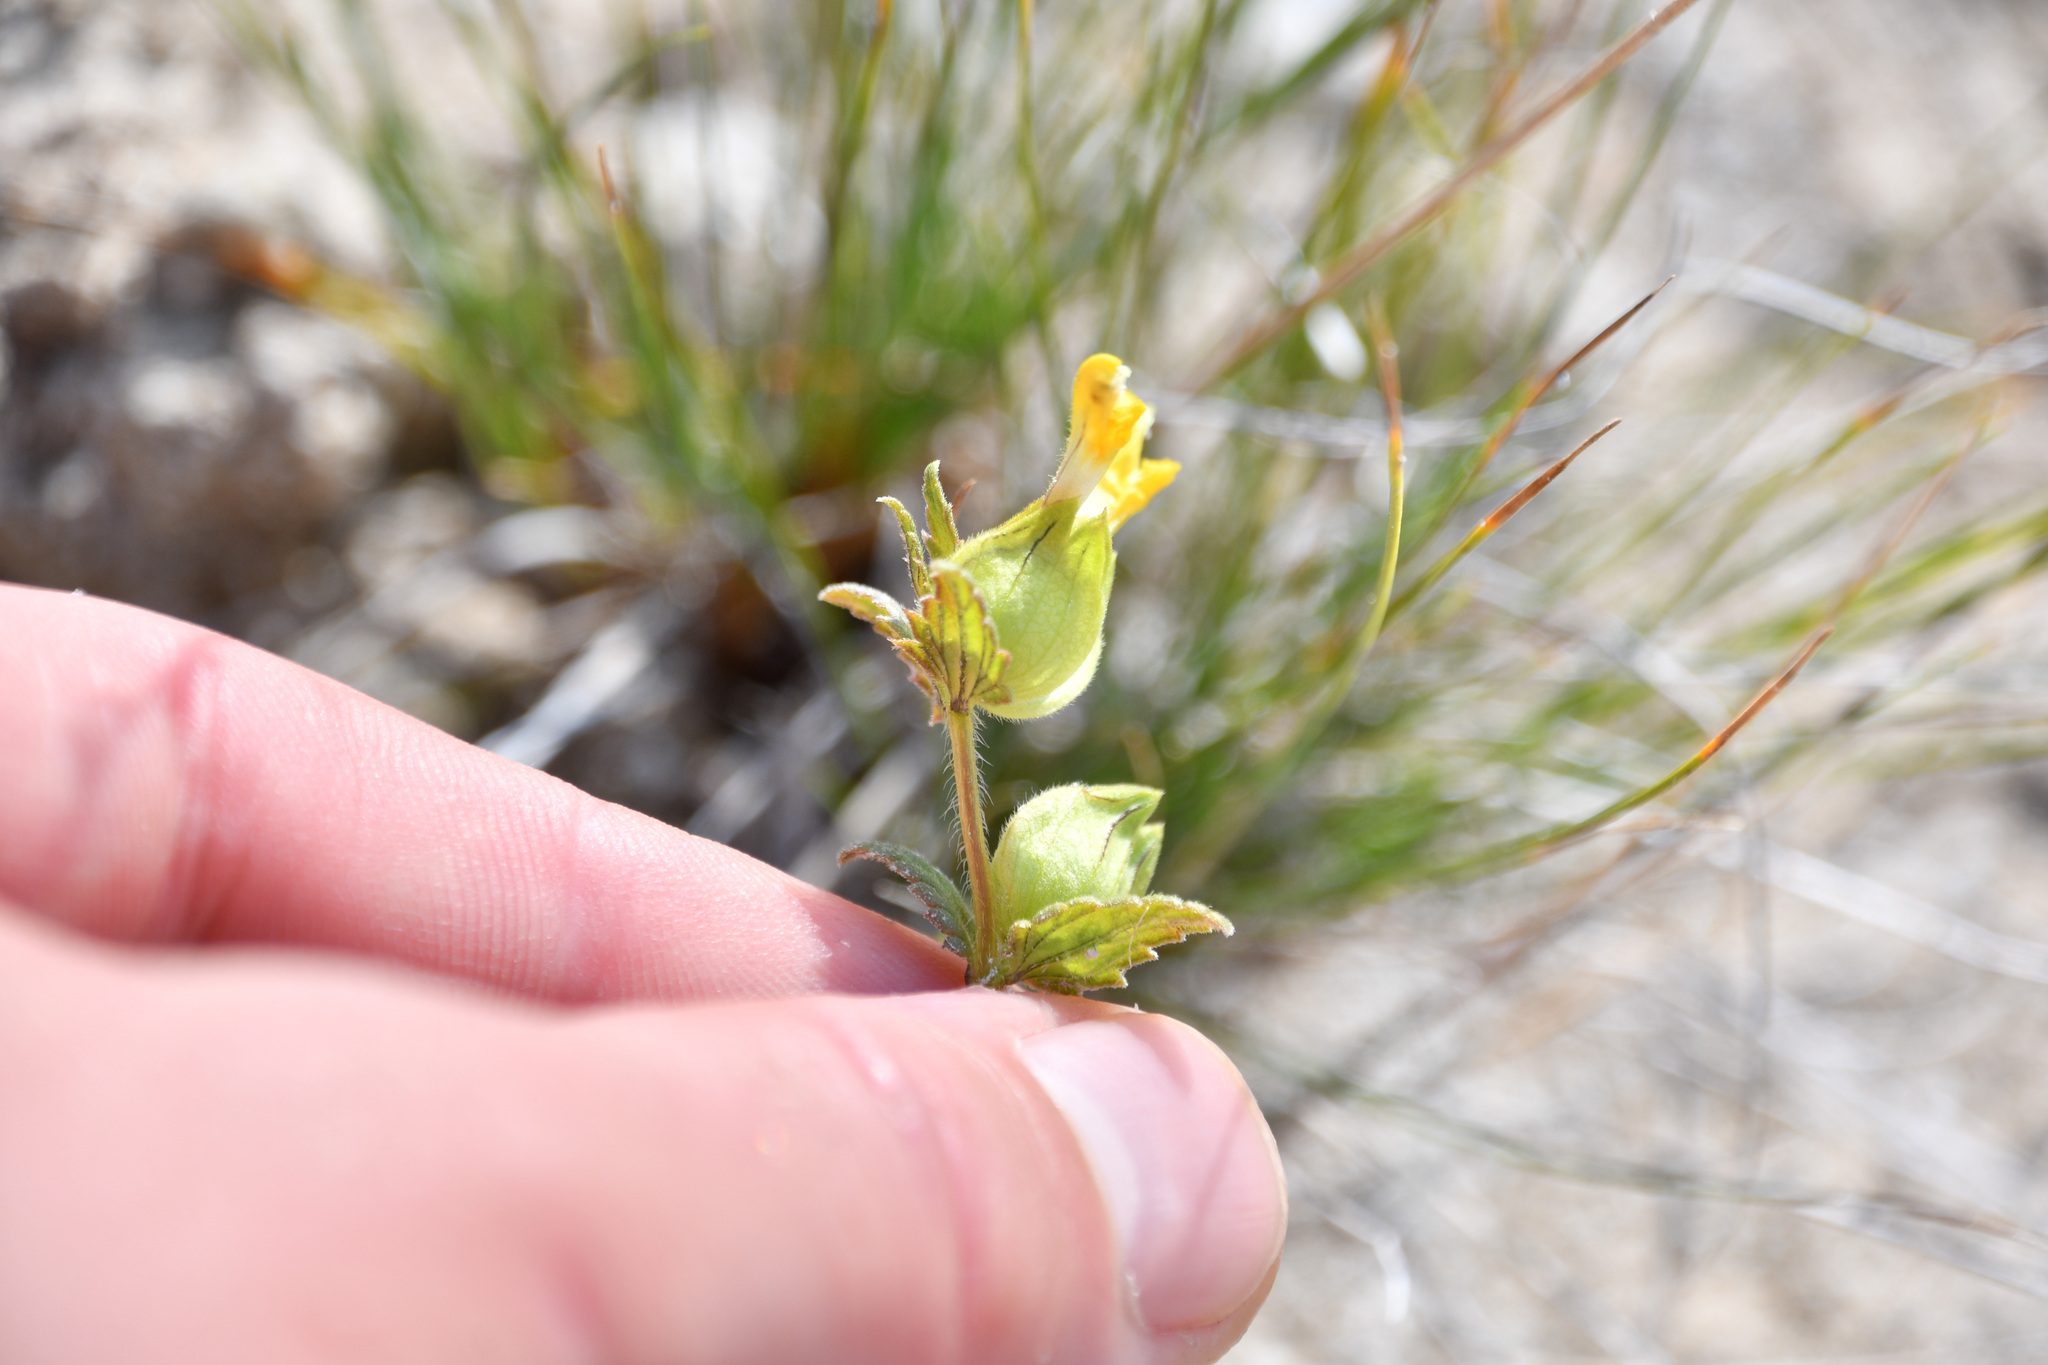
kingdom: Plantae
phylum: Tracheophyta
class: Magnoliopsida
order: Lamiales
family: Orobanchaceae
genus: Rhinanthus
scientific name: Rhinanthus groenlandicus
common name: Little yellow rattle
